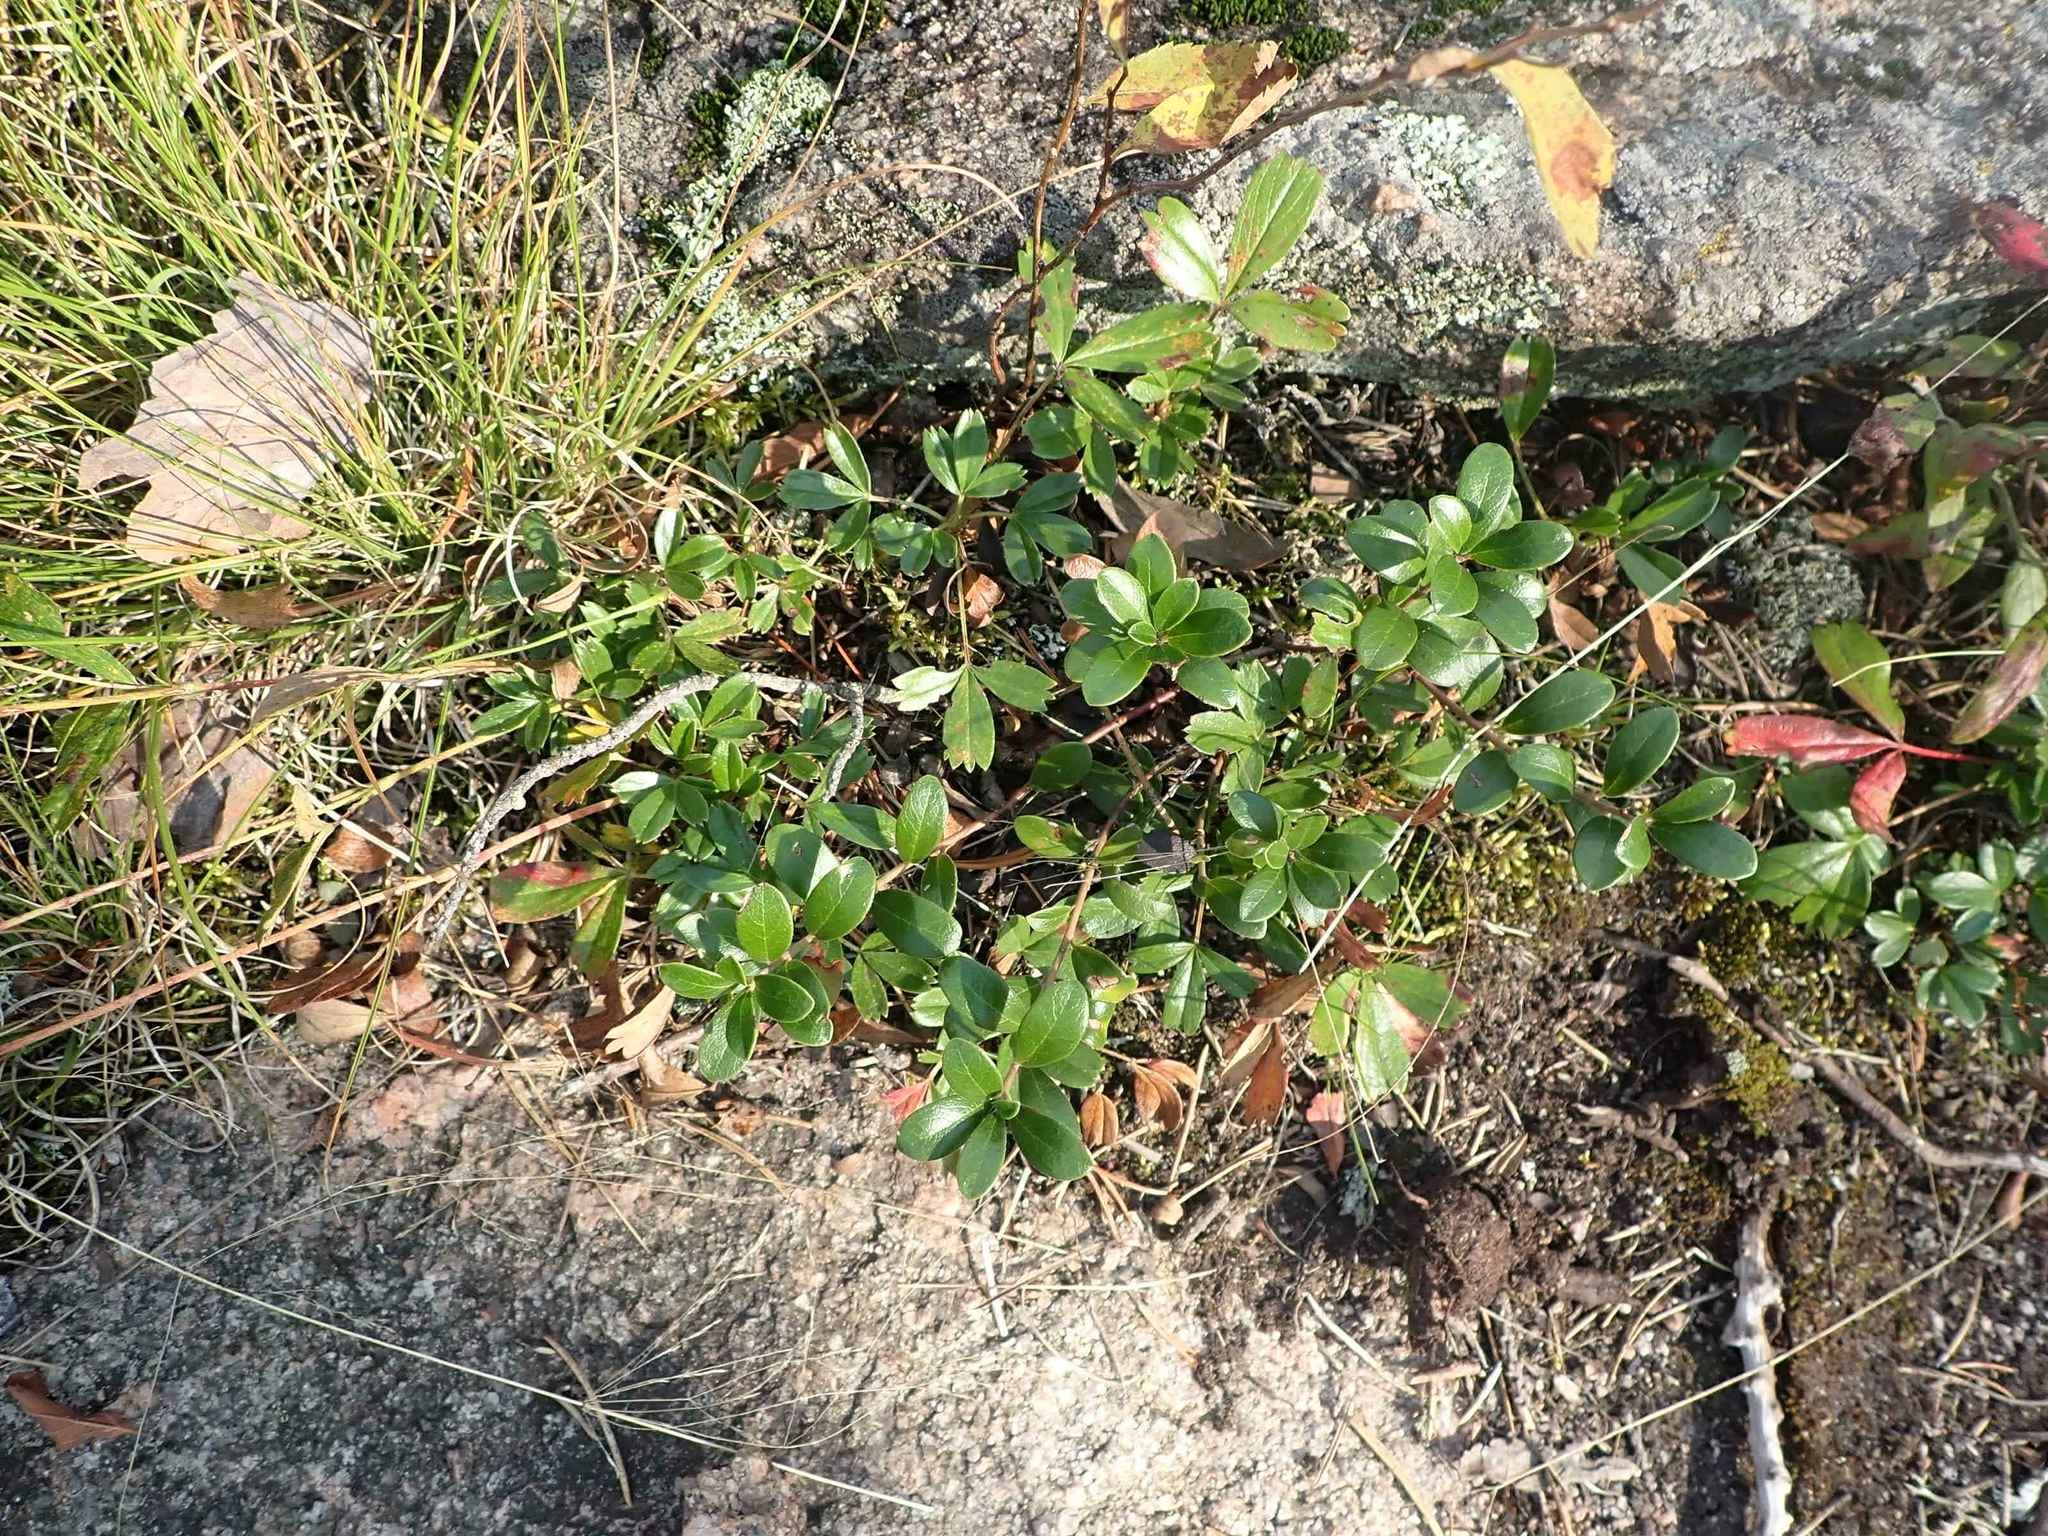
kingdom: Plantae
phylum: Tracheophyta
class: Magnoliopsida
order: Ericales
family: Ericaceae
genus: Arctostaphylos
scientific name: Arctostaphylos uva-ursi
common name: Bearberry
